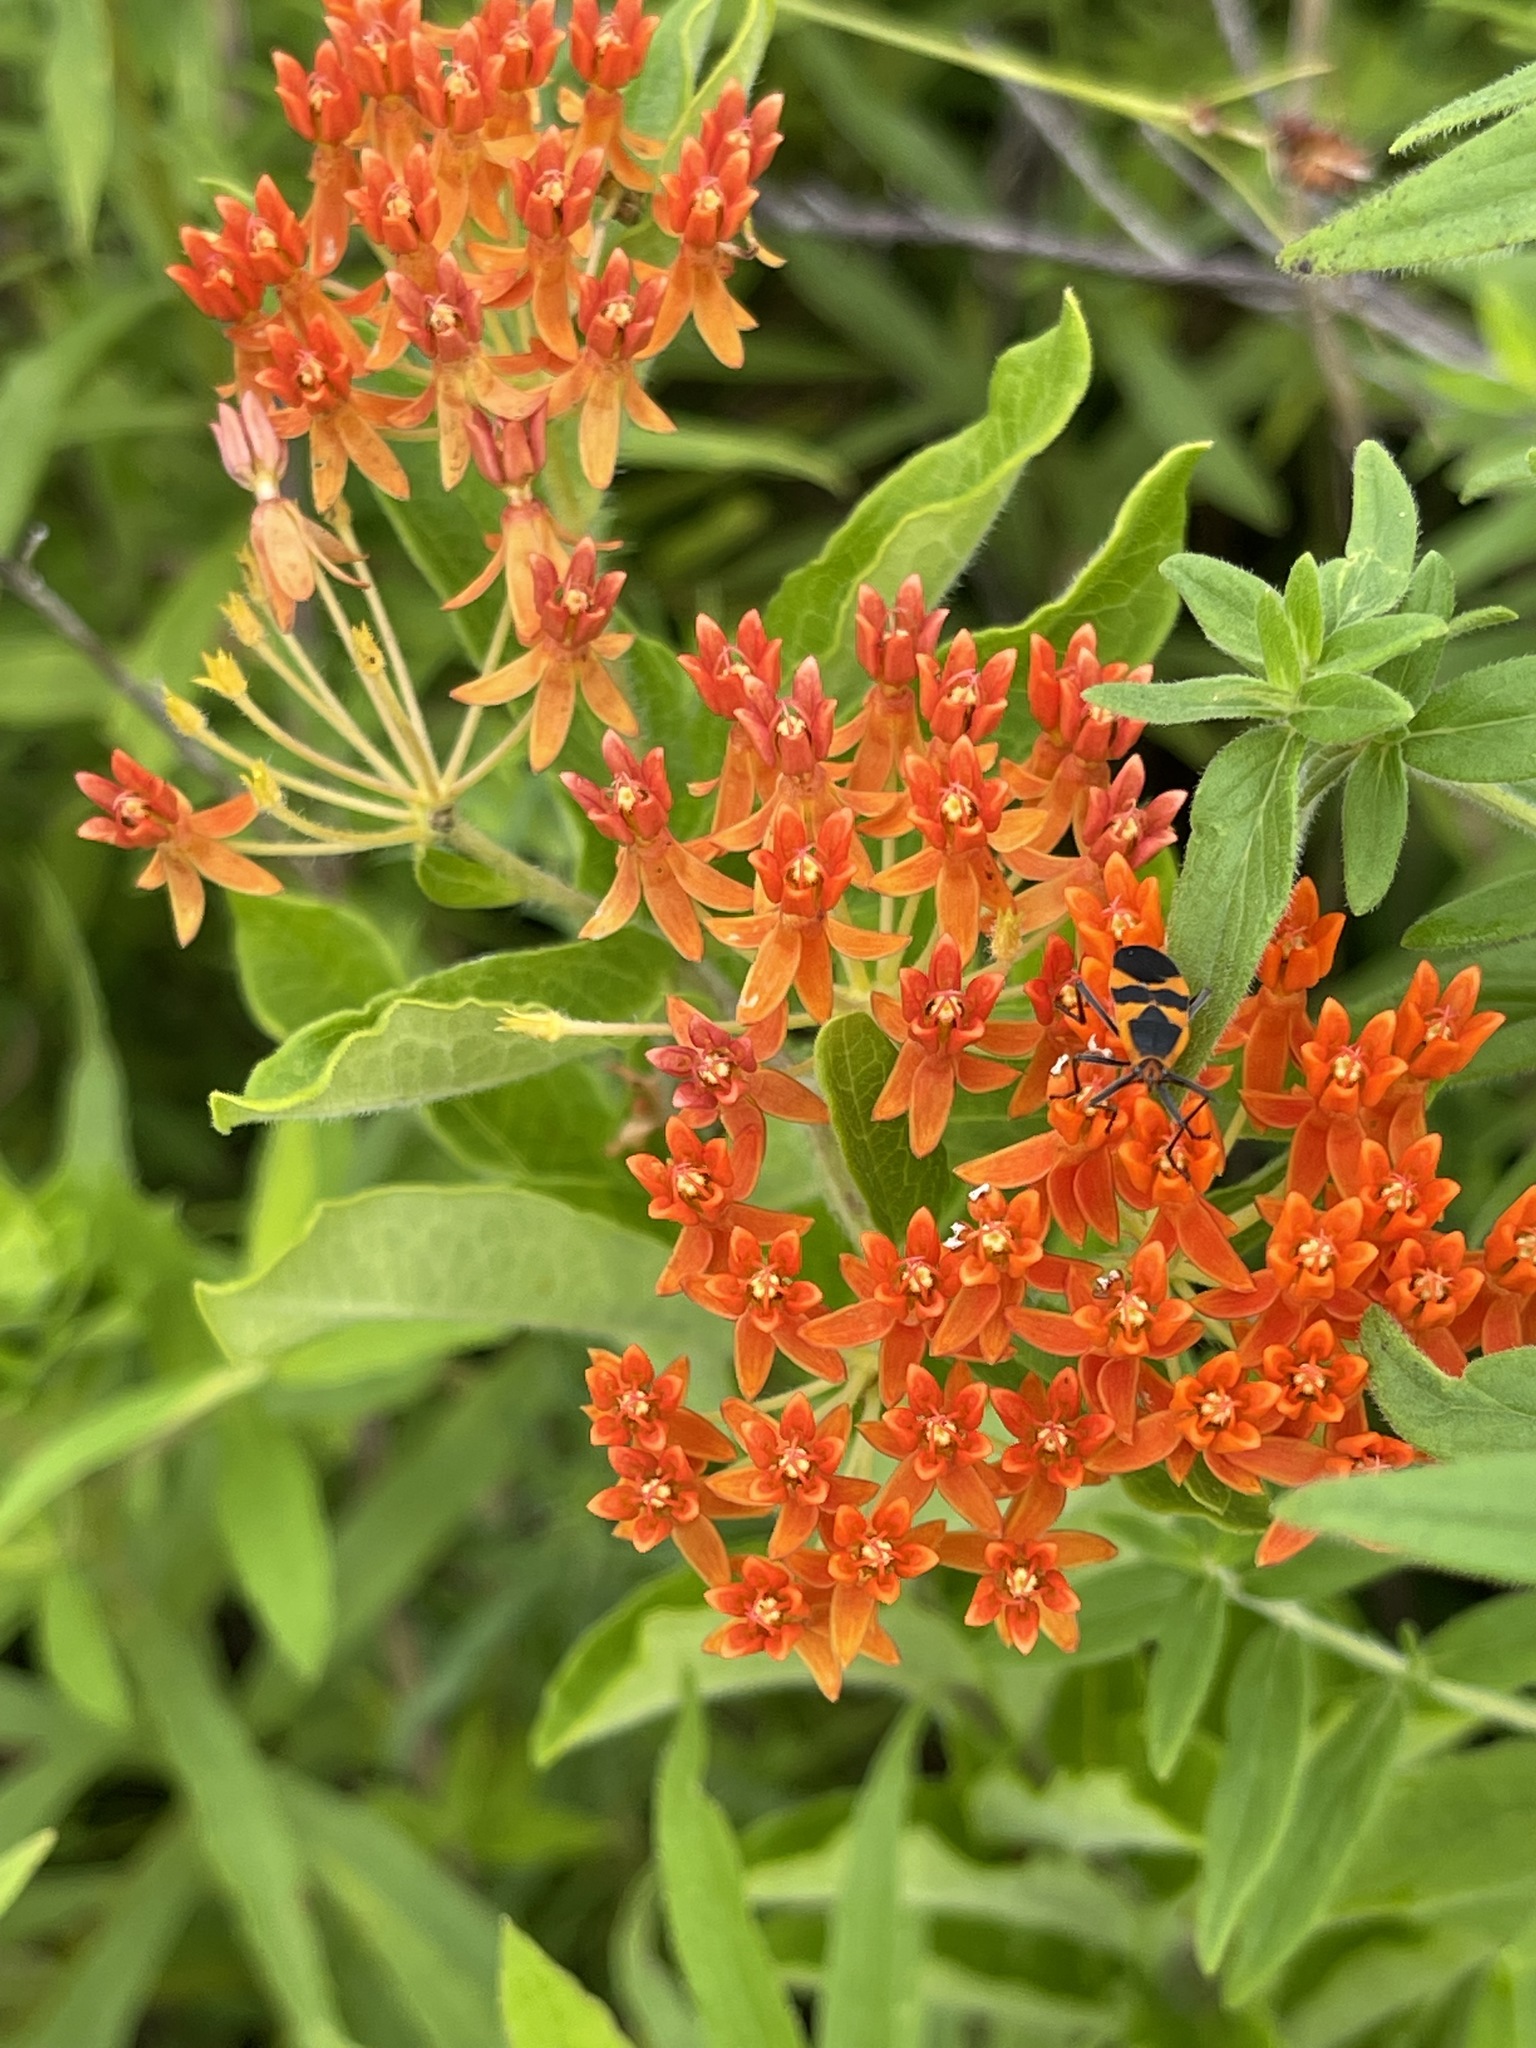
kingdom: Plantae
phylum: Tracheophyta
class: Magnoliopsida
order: Gentianales
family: Apocynaceae
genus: Asclepias
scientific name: Asclepias tuberosa
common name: Butterfly milkweed
